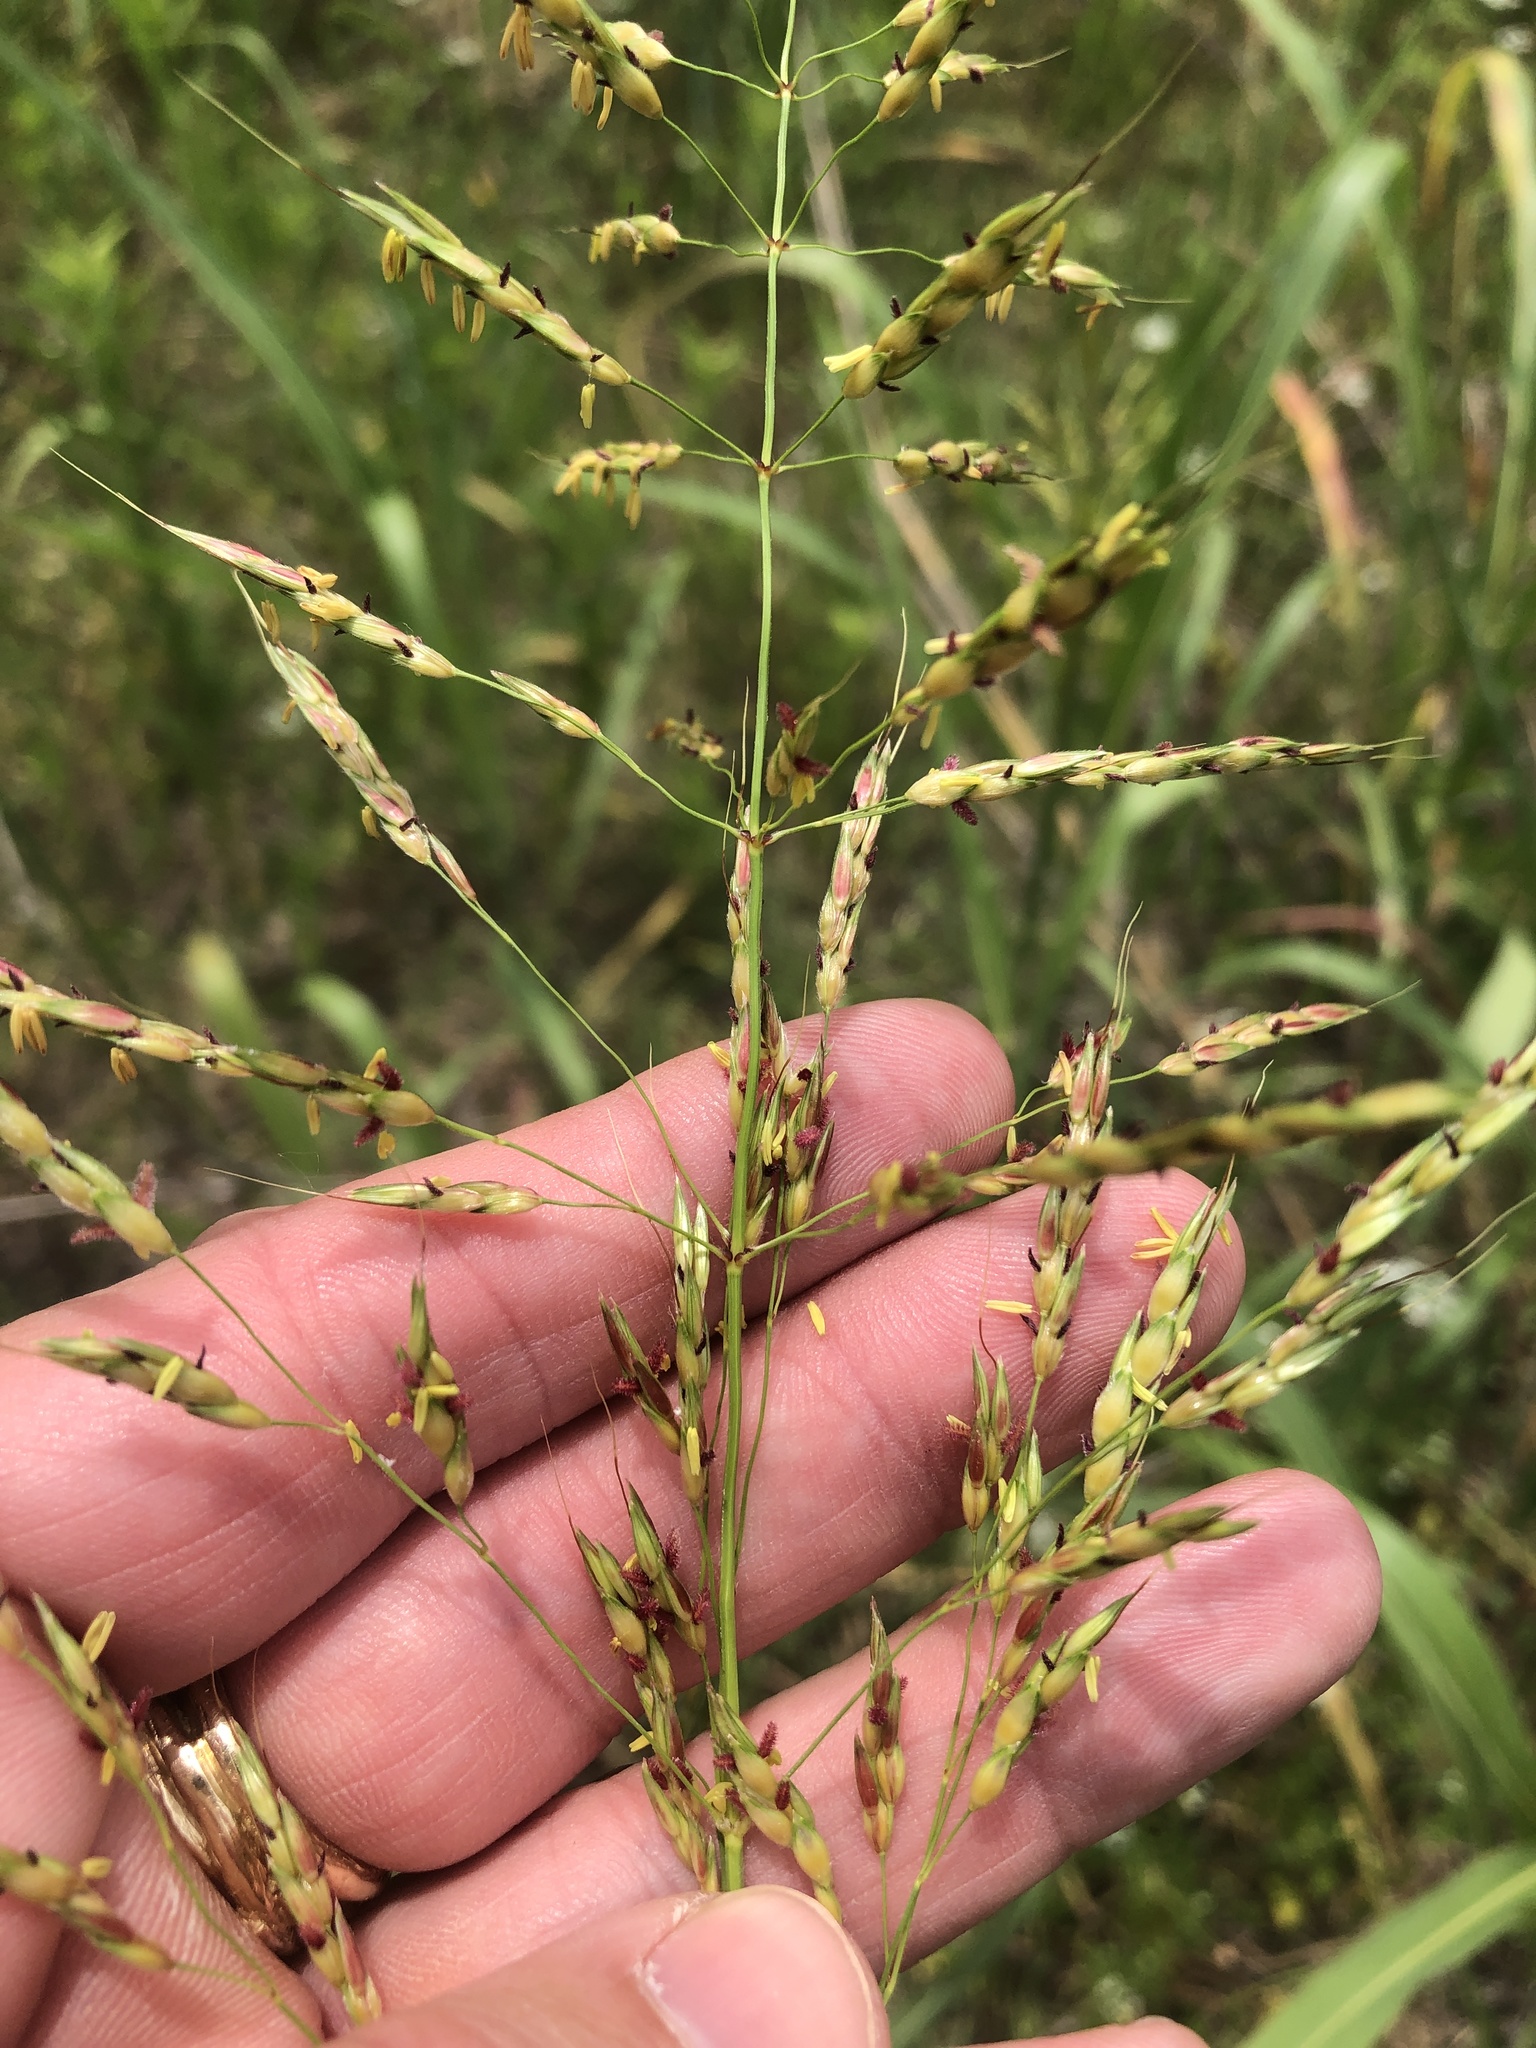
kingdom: Plantae
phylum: Tracheophyta
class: Liliopsida
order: Poales
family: Poaceae
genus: Sorghum
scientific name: Sorghum halepense
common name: Johnson-grass
